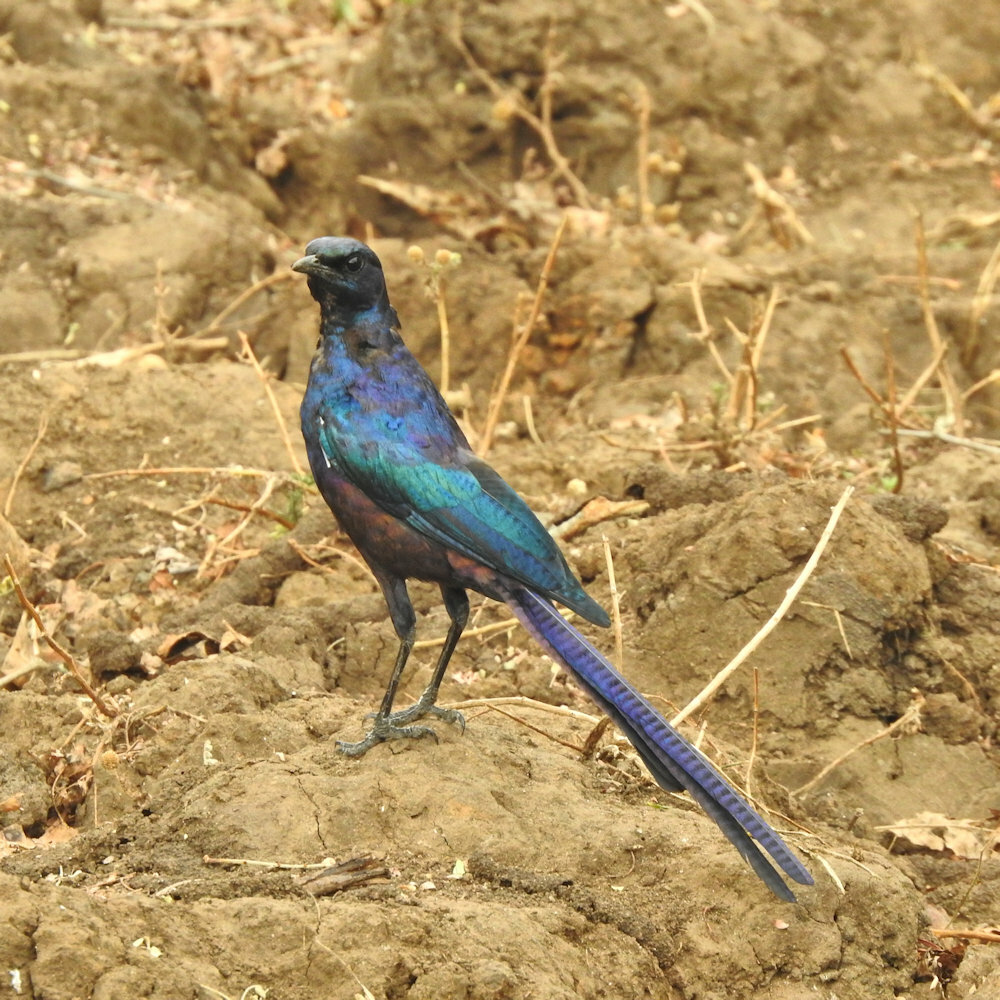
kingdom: Animalia
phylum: Chordata
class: Aves
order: Passeriformes
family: Sturnidae
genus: Lamprotornis
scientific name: Lamprotornis mevesii
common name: Meves's starling
